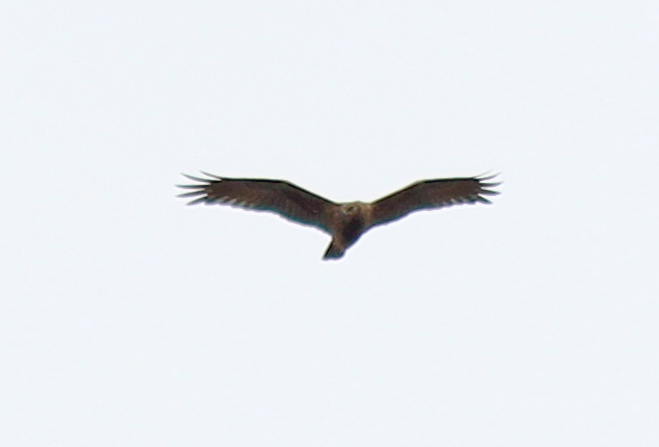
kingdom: Animalia
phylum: Chordata
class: Aves
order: Accipitriformes
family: Accipitridae
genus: Circus
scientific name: Circus spilonotus
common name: Eastern marsh-harrier
